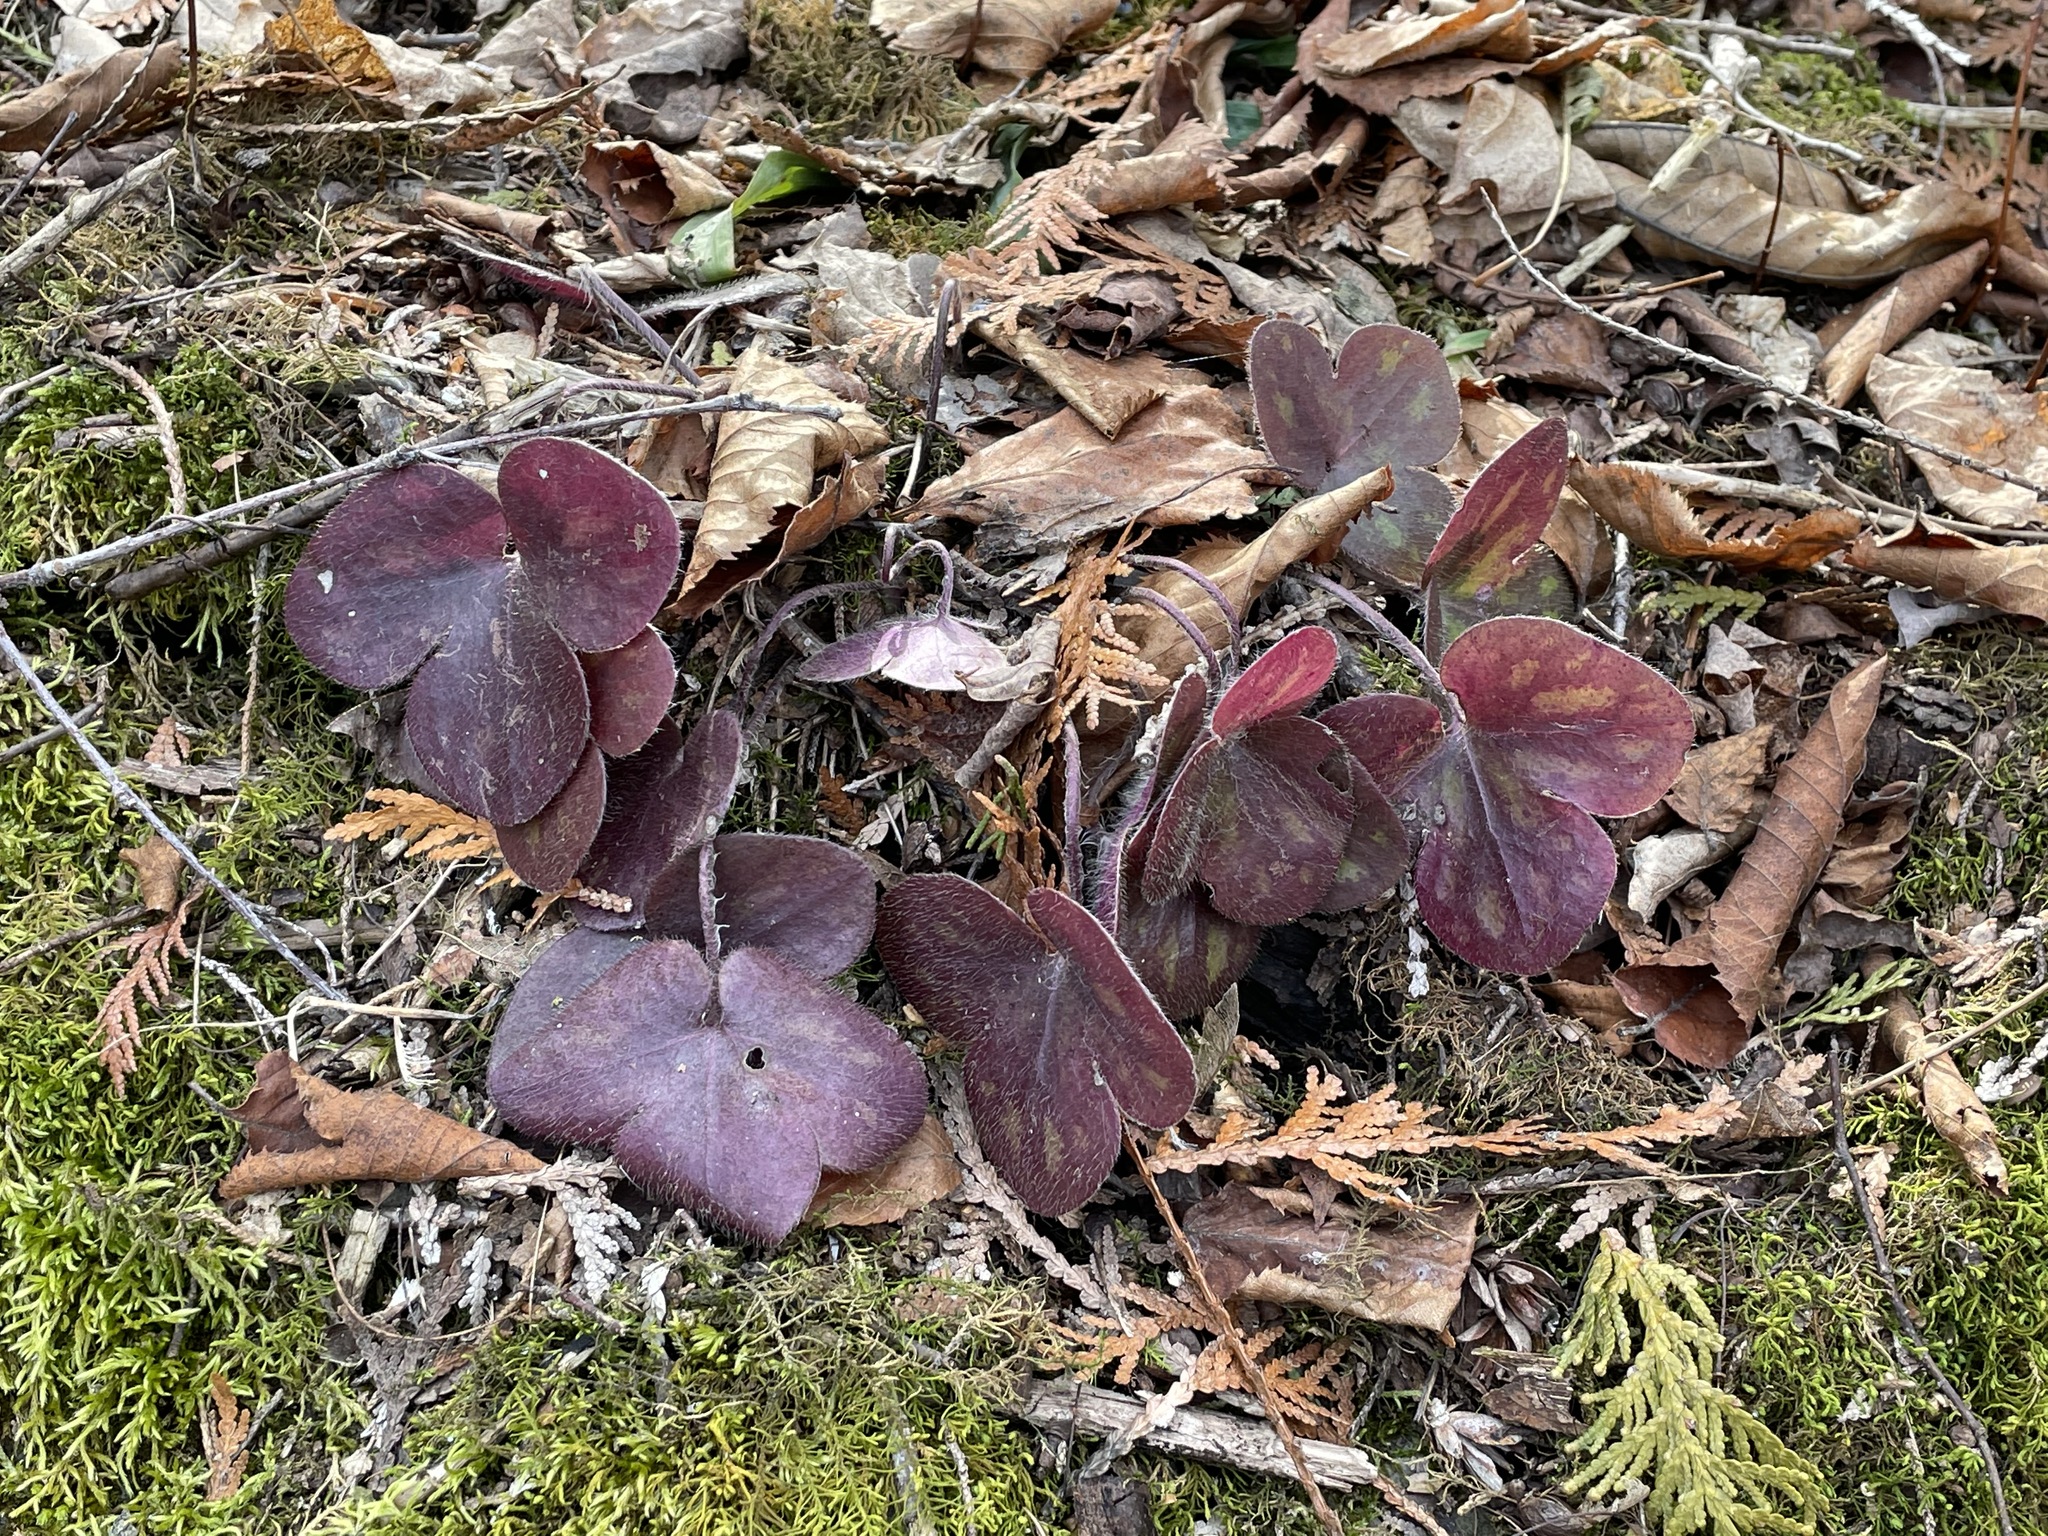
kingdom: Plantae
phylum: Tracheophyta
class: Magnoliopsida
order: Ranunculales
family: Ranunculaceae
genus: Hepatica
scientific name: Hepatica americana
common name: American hepatica
